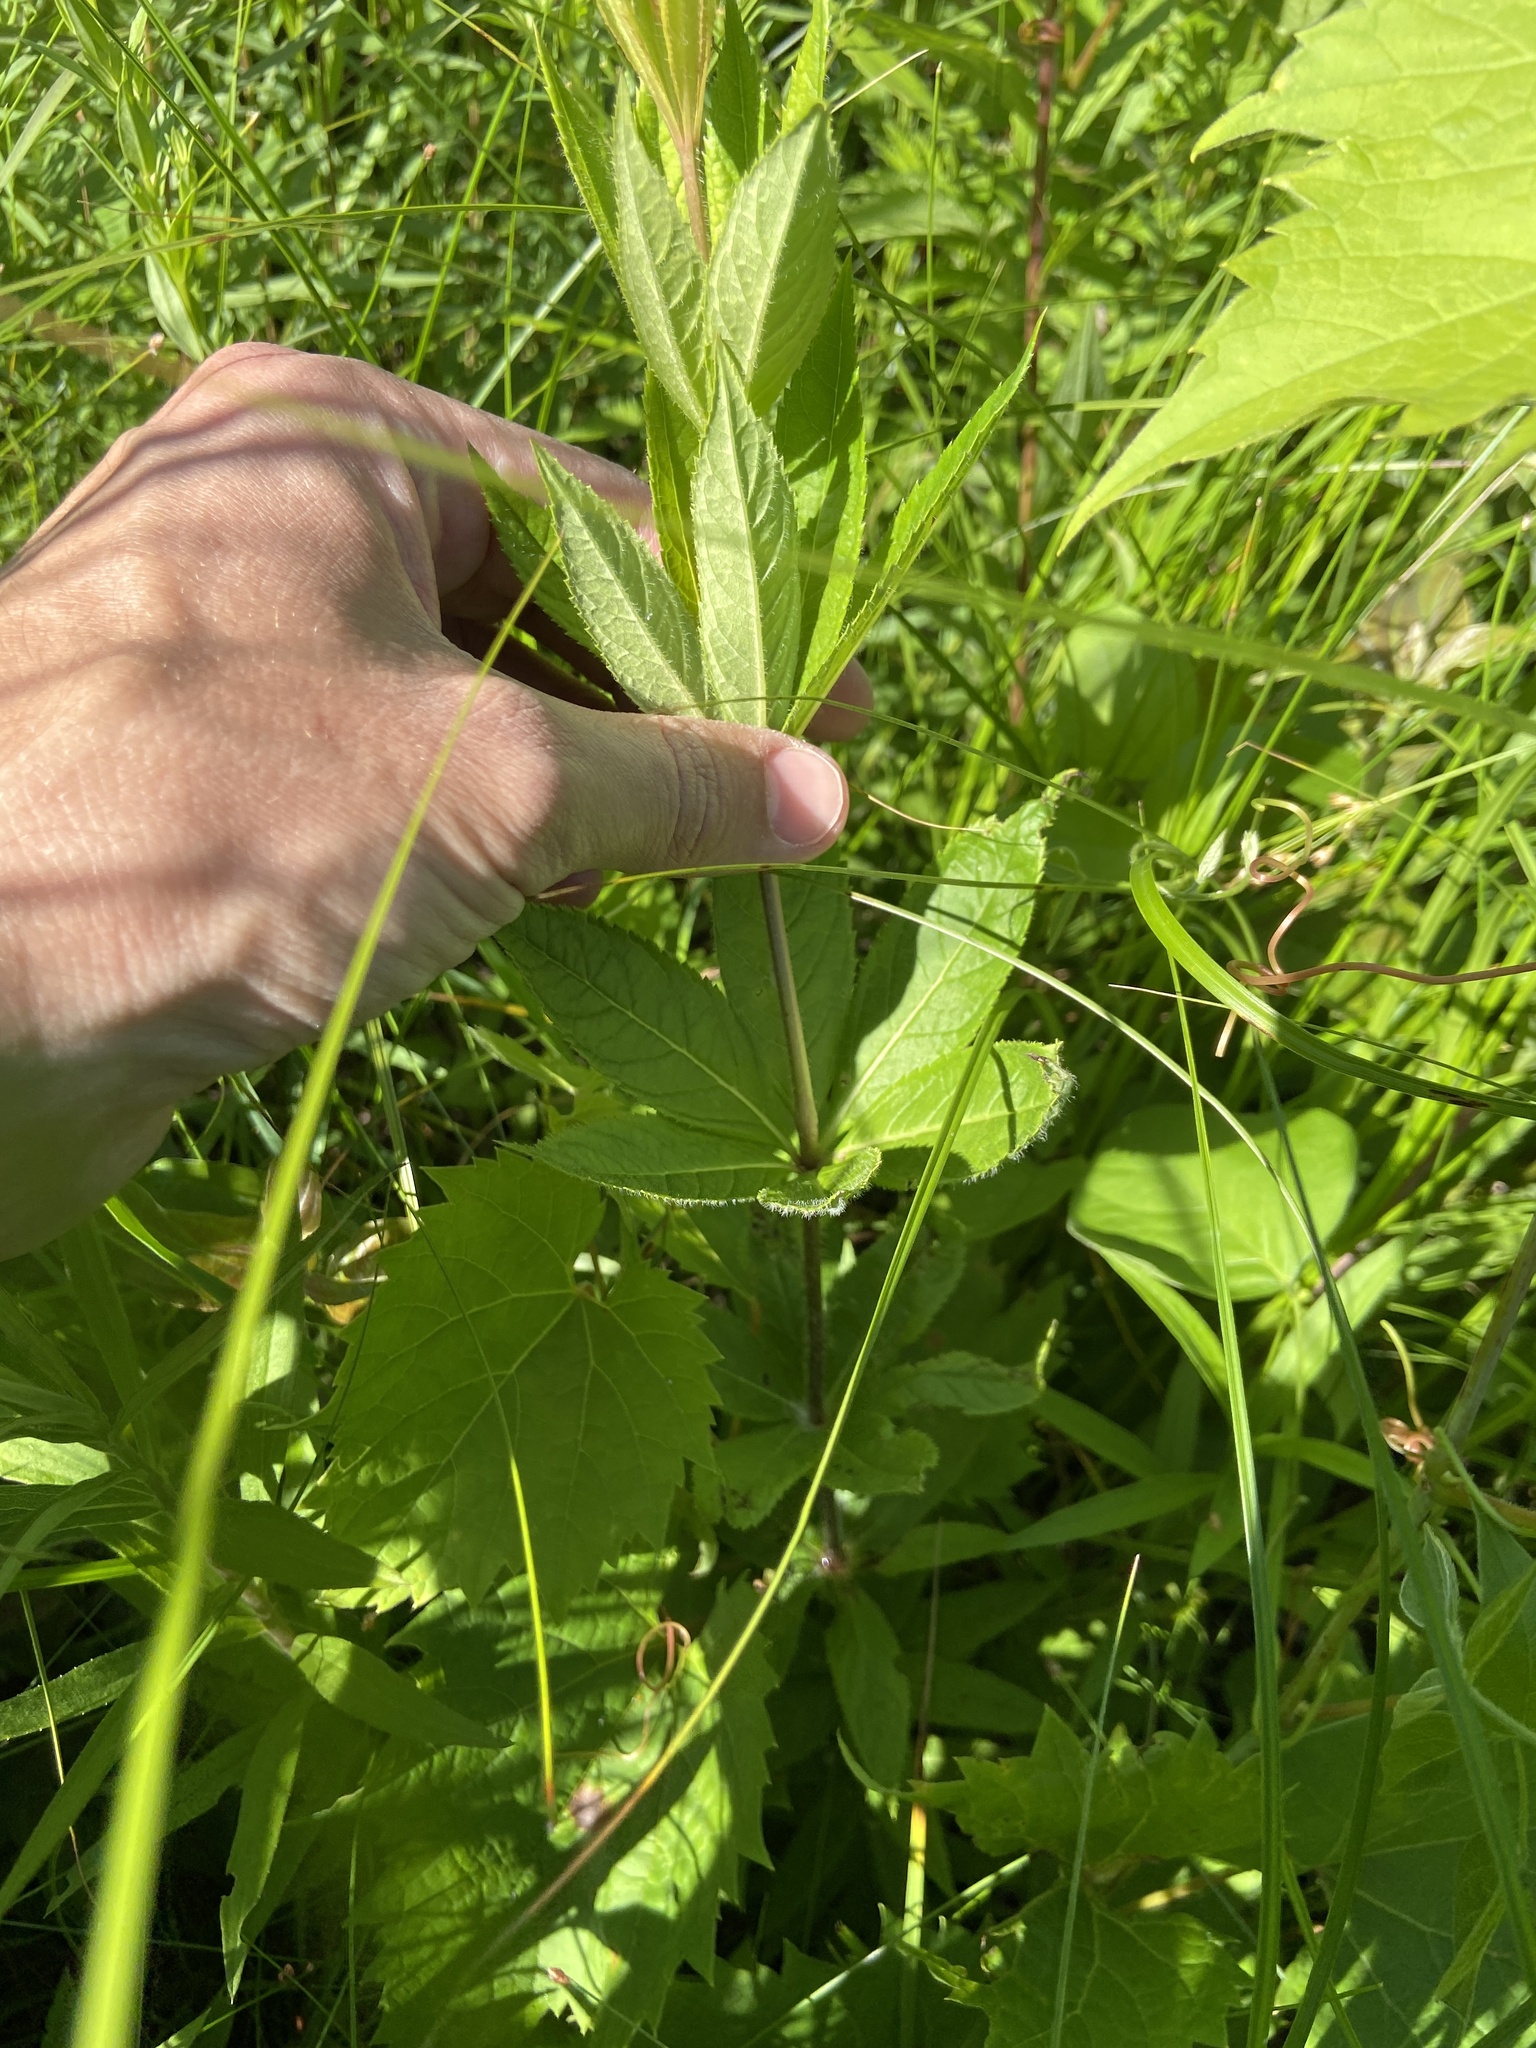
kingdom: Plantae
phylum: Tracheophyta
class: Magnoliopsida
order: Lamiales
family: Plantaginaceae
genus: Veronicastrum
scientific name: Veronicastrum virginicum
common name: Blackroot
